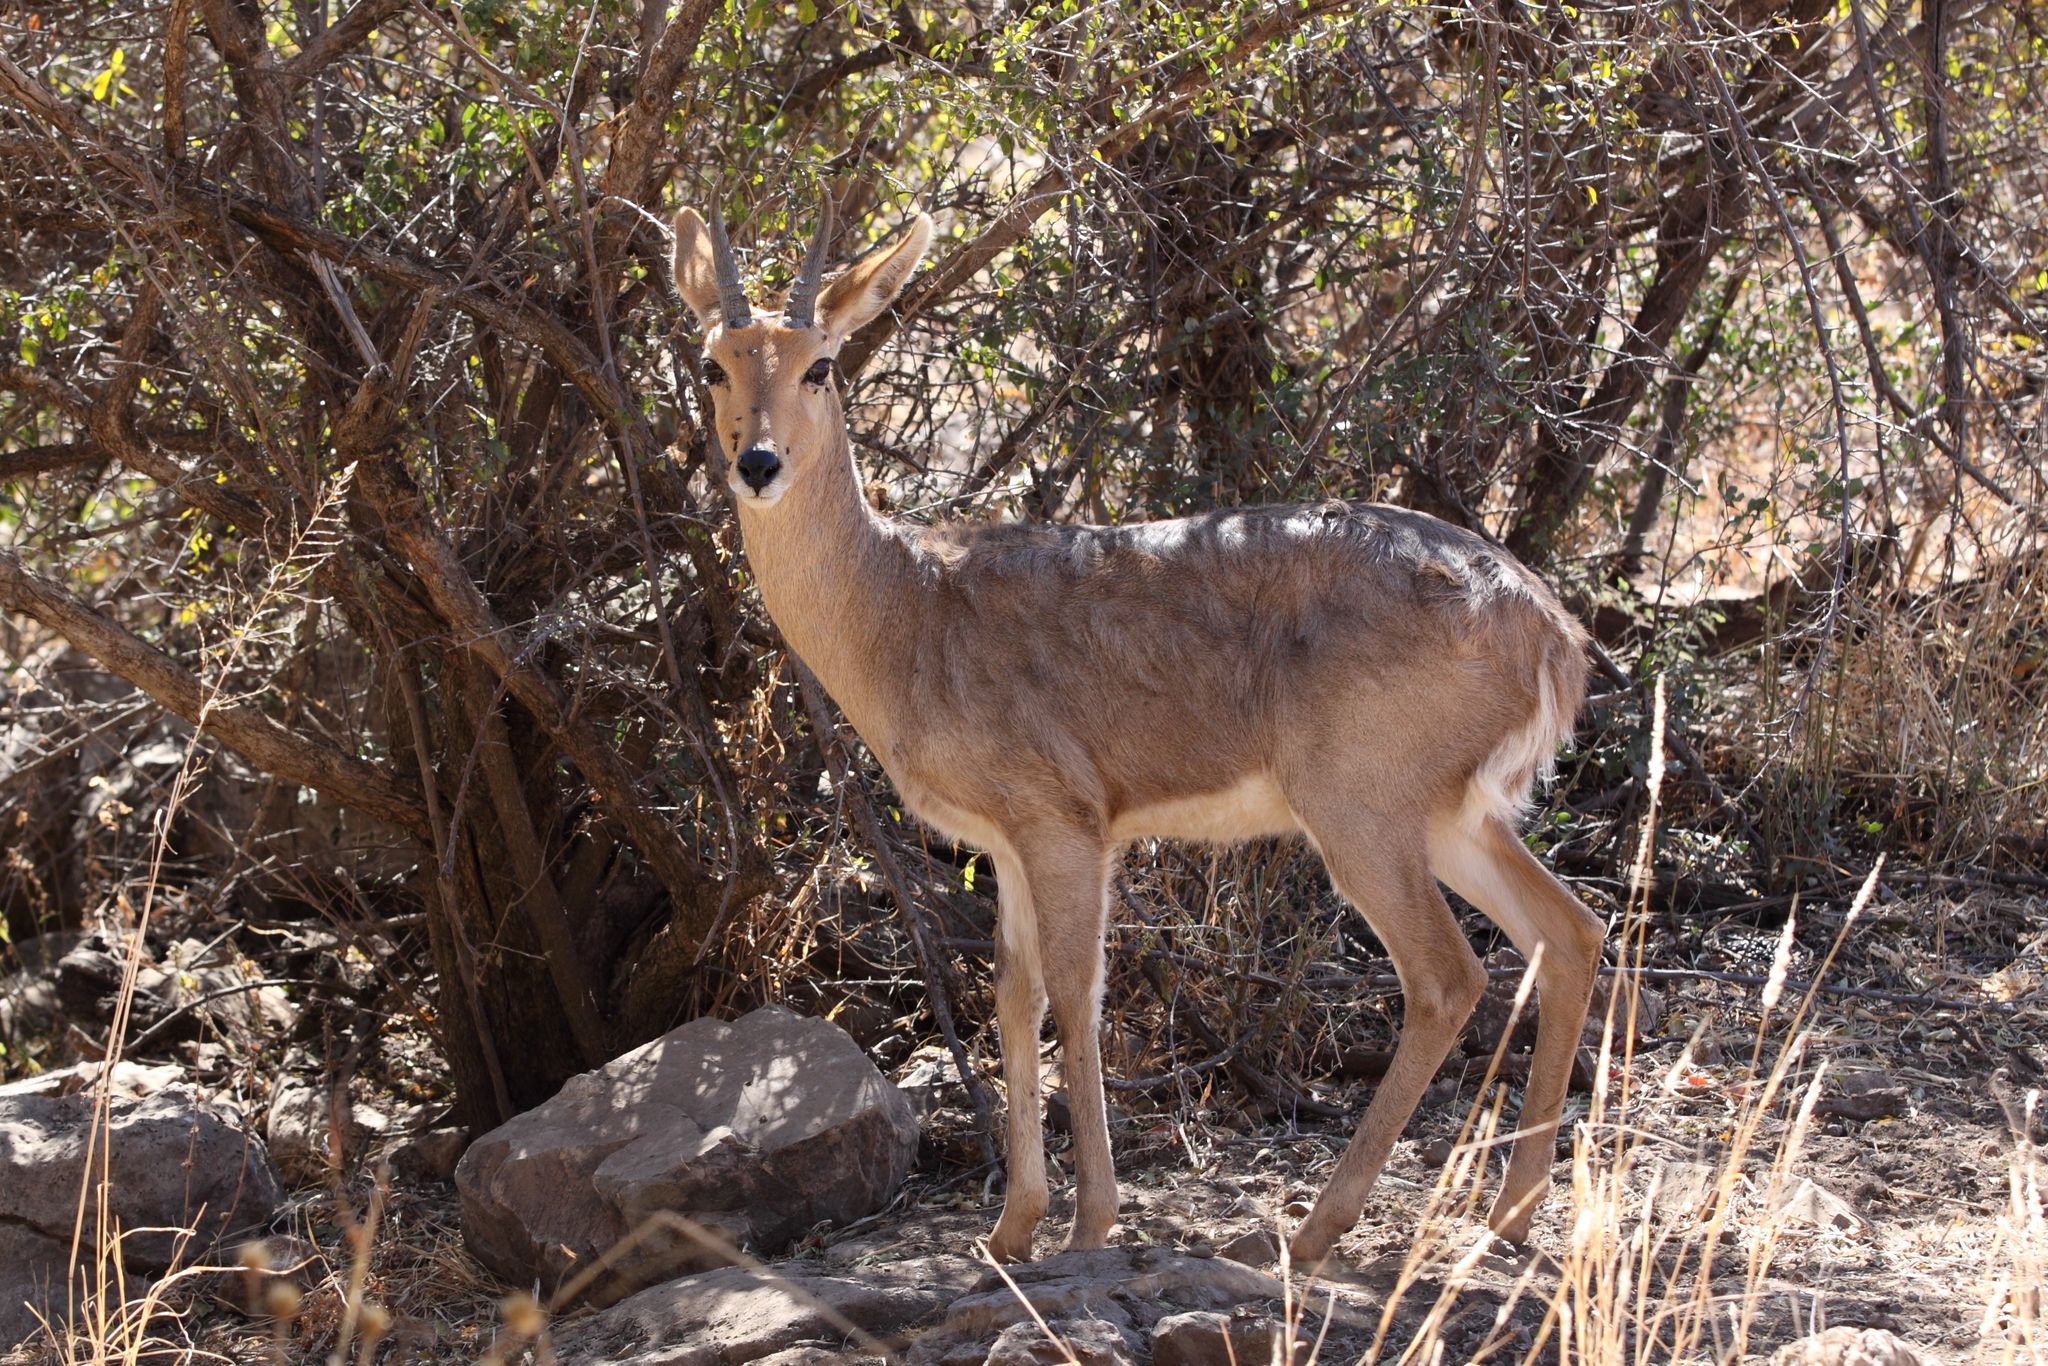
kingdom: Animalia
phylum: Chordata
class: Mammalia
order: Artiodactyla
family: Bovidae
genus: Redunca
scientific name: Redunca fulvorufula
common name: Mountain reedbuck
